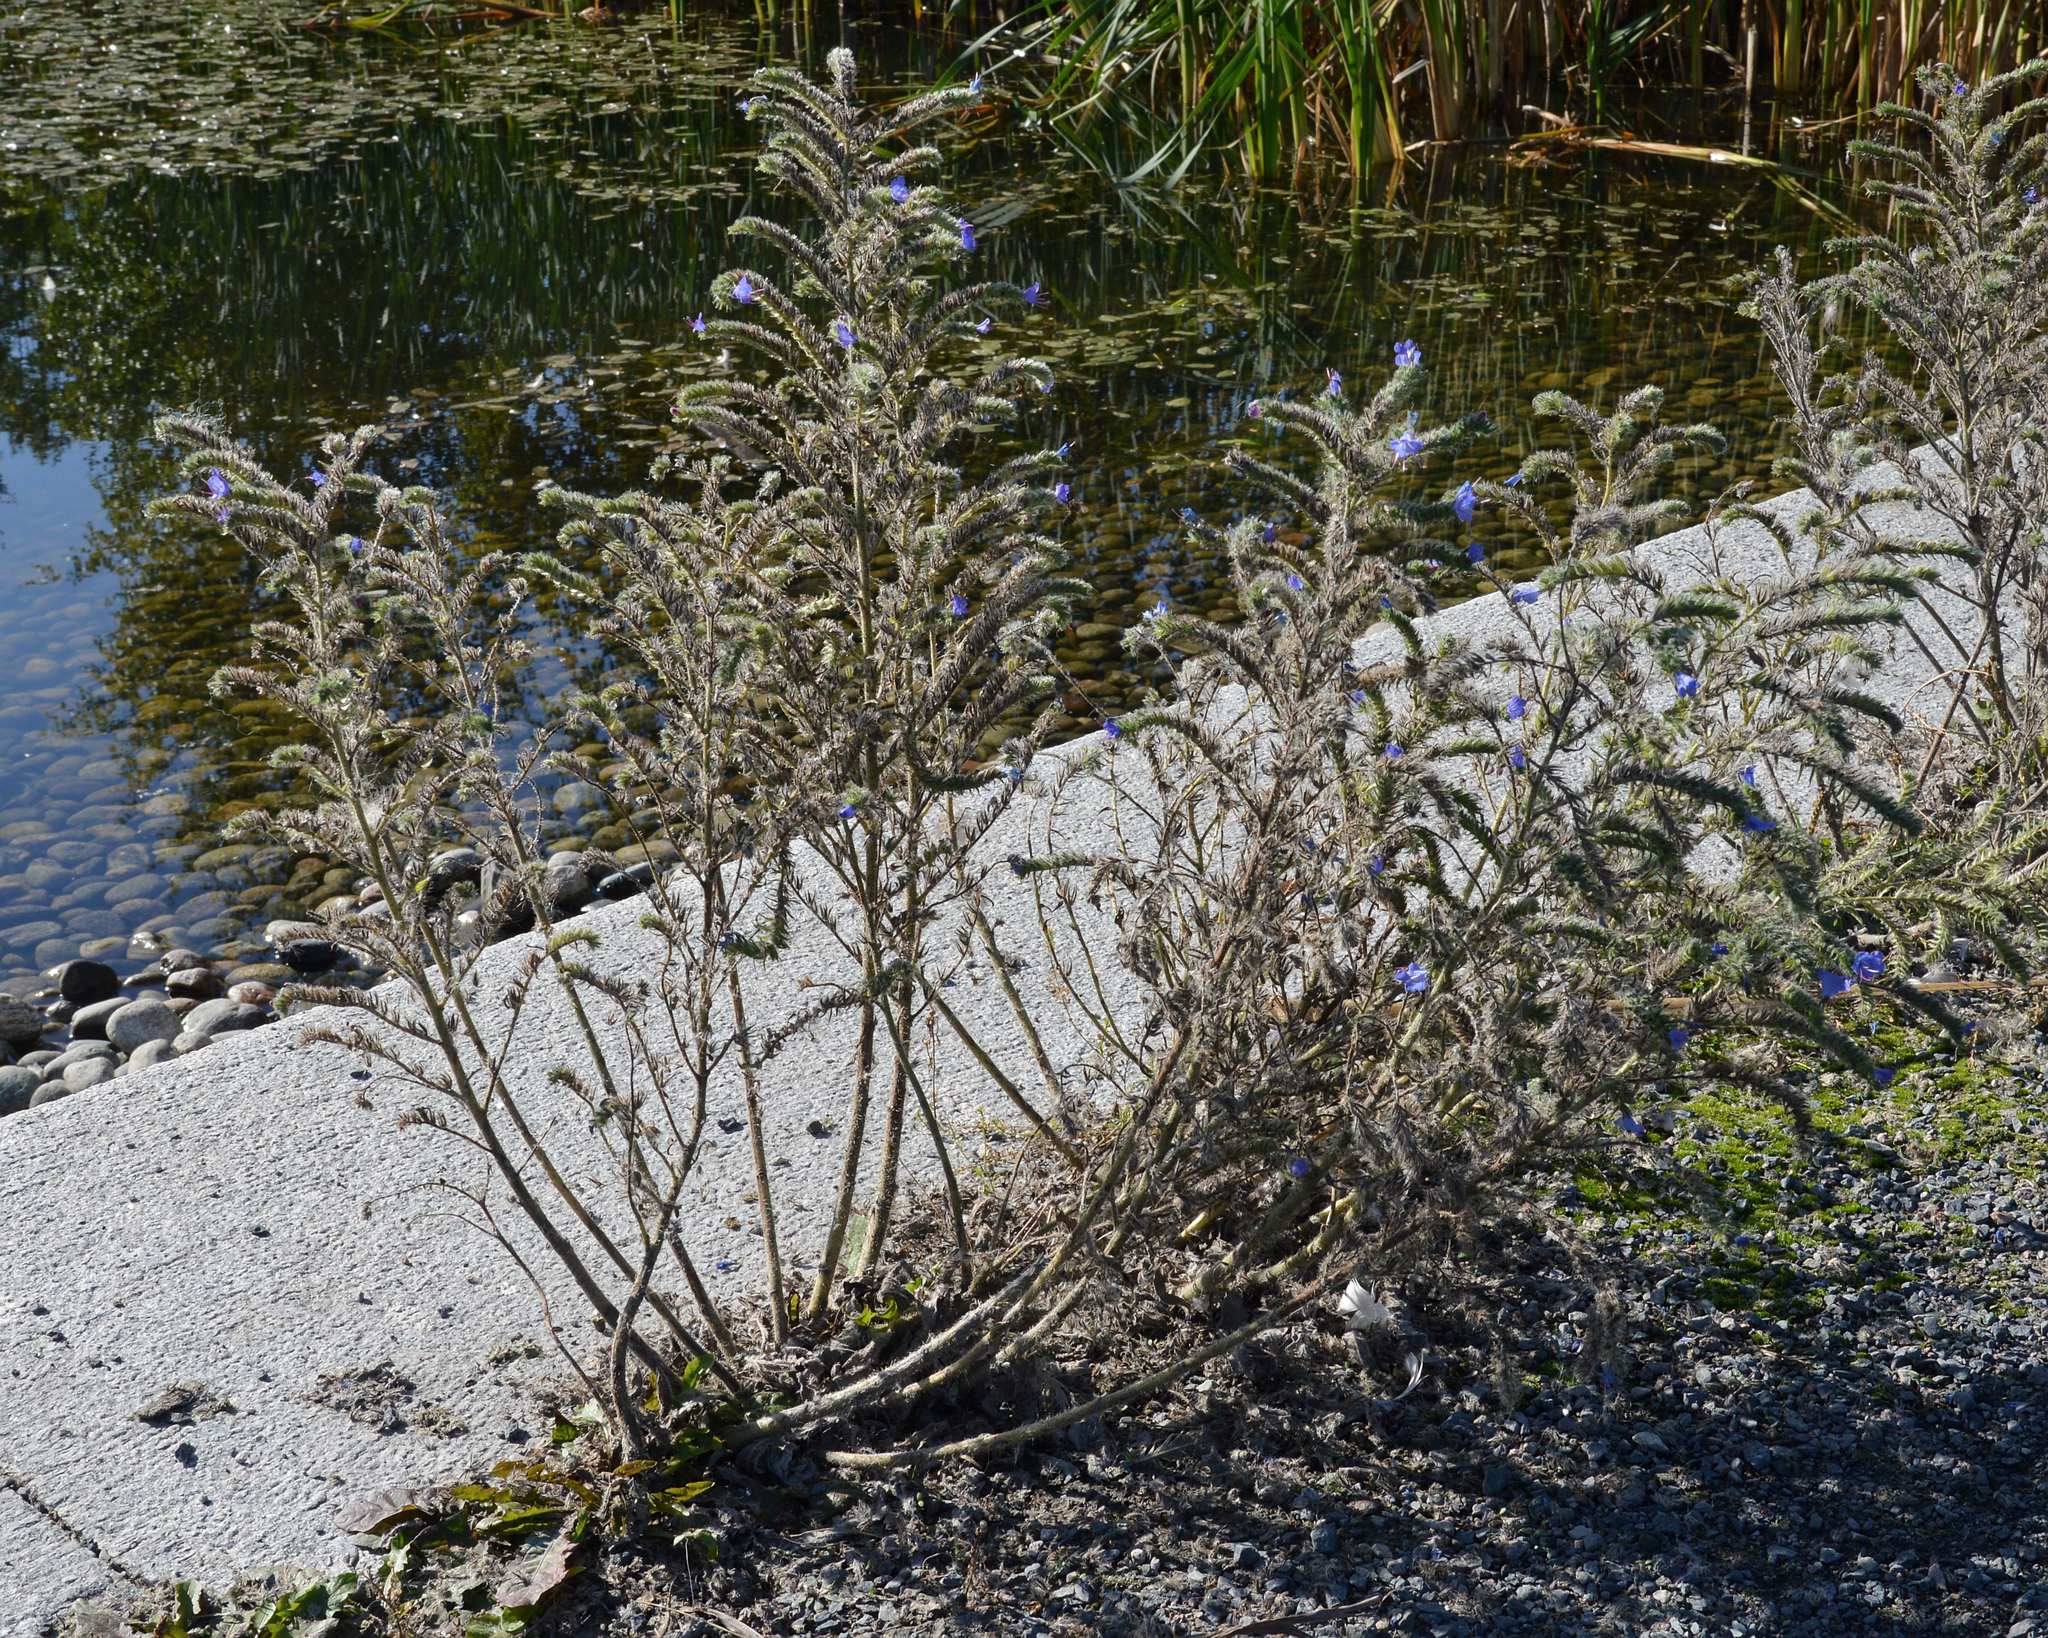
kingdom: Plantae
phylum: Tracheophyta
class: Magnoliopsida
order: Boraginales
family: Boraginaceae
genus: Echium
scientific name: Echium vulgare
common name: Common viper's bugloss
